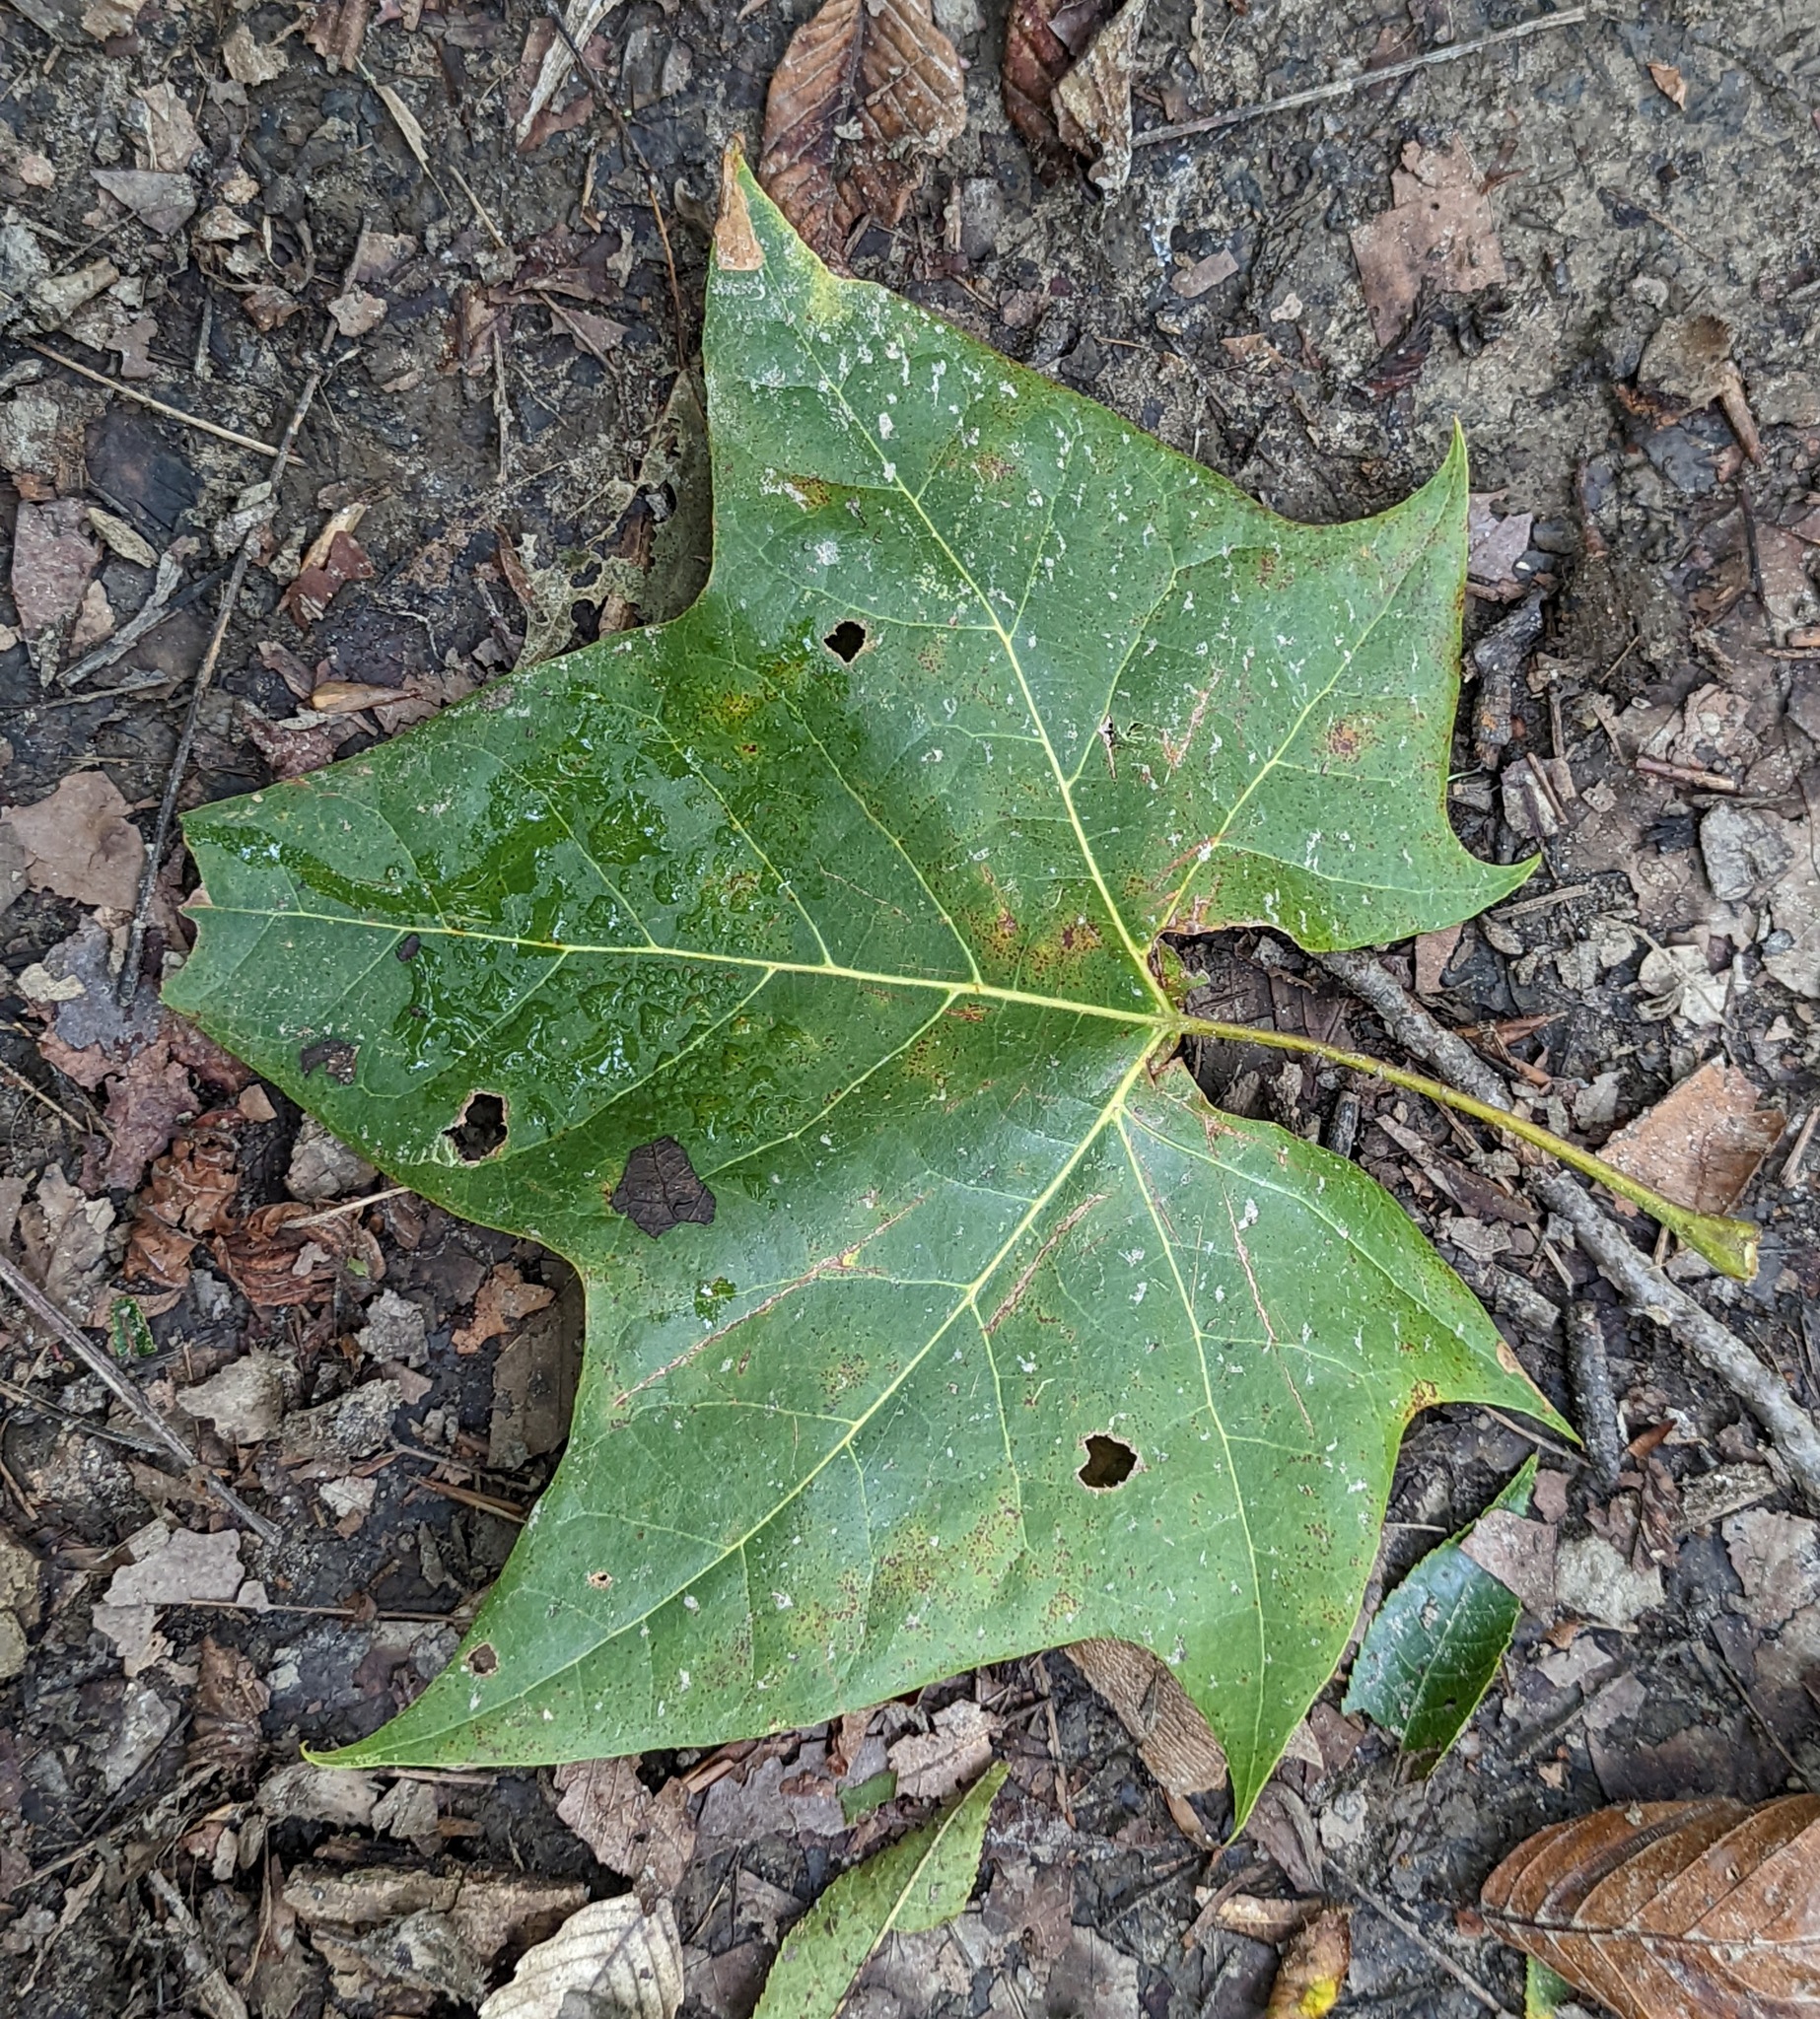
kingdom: Plantae
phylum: Tracheophyta
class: Magnoliopsida
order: Proteales
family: Platanaceae
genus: Platanus
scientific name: Platanus occidentalis
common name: American sycamore
